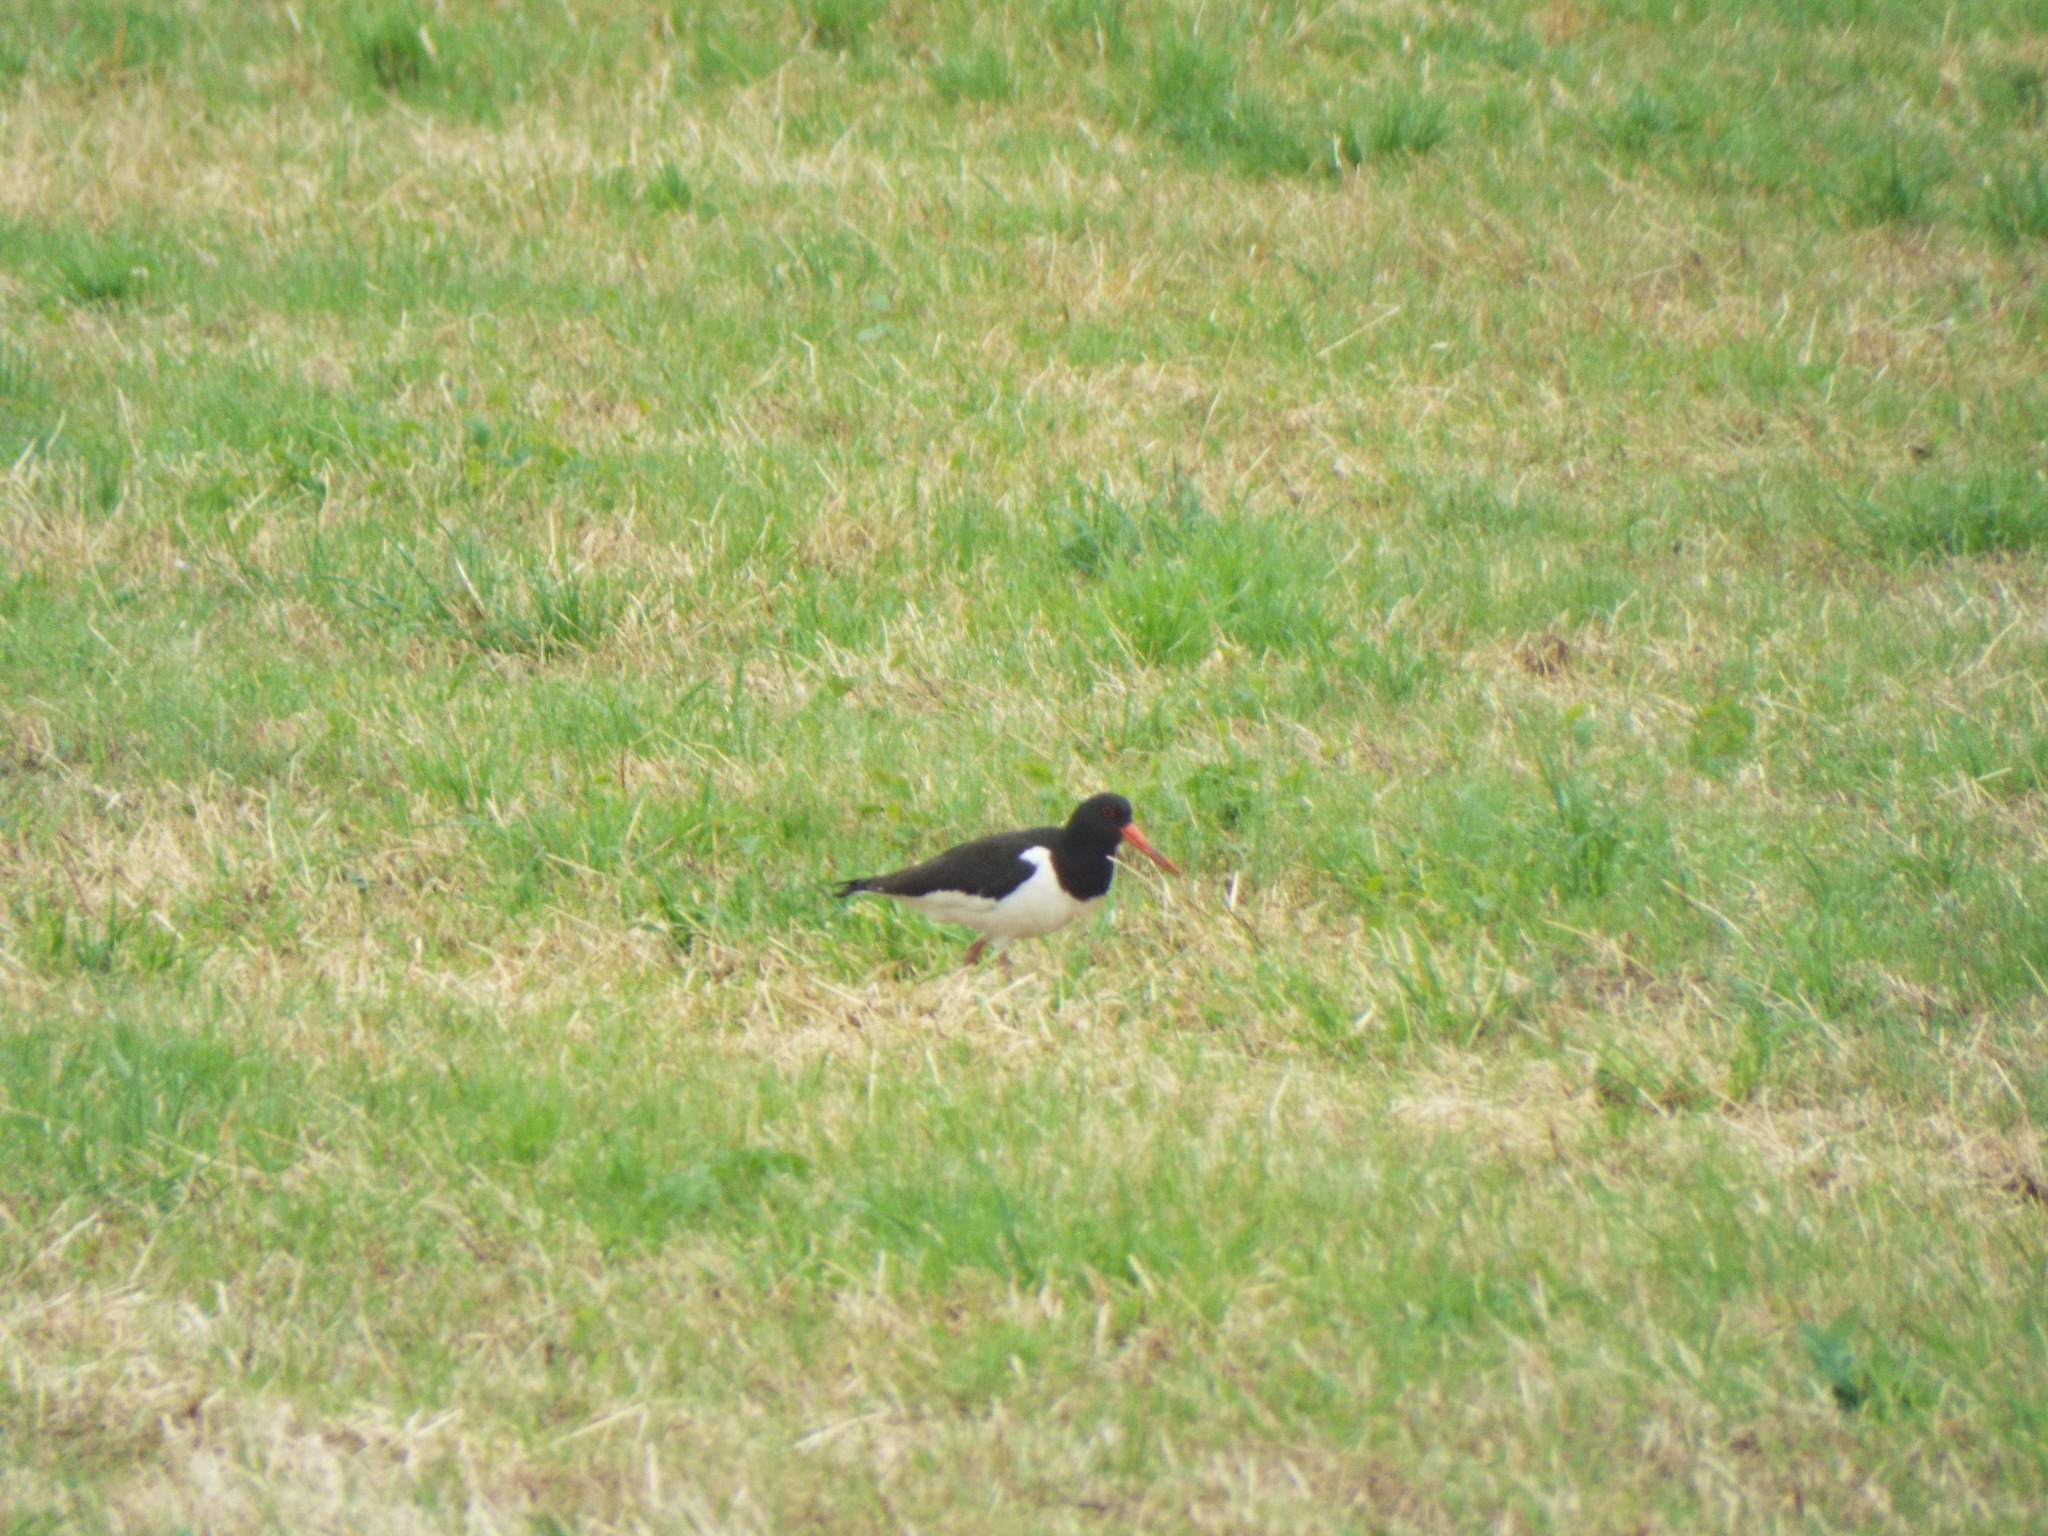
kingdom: Animalia
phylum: Chordata
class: Aves
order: Charadriiformes
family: Haematopodidae
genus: Haematopus
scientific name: Haematopus ostralegus
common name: Eurasian oystercatcher
